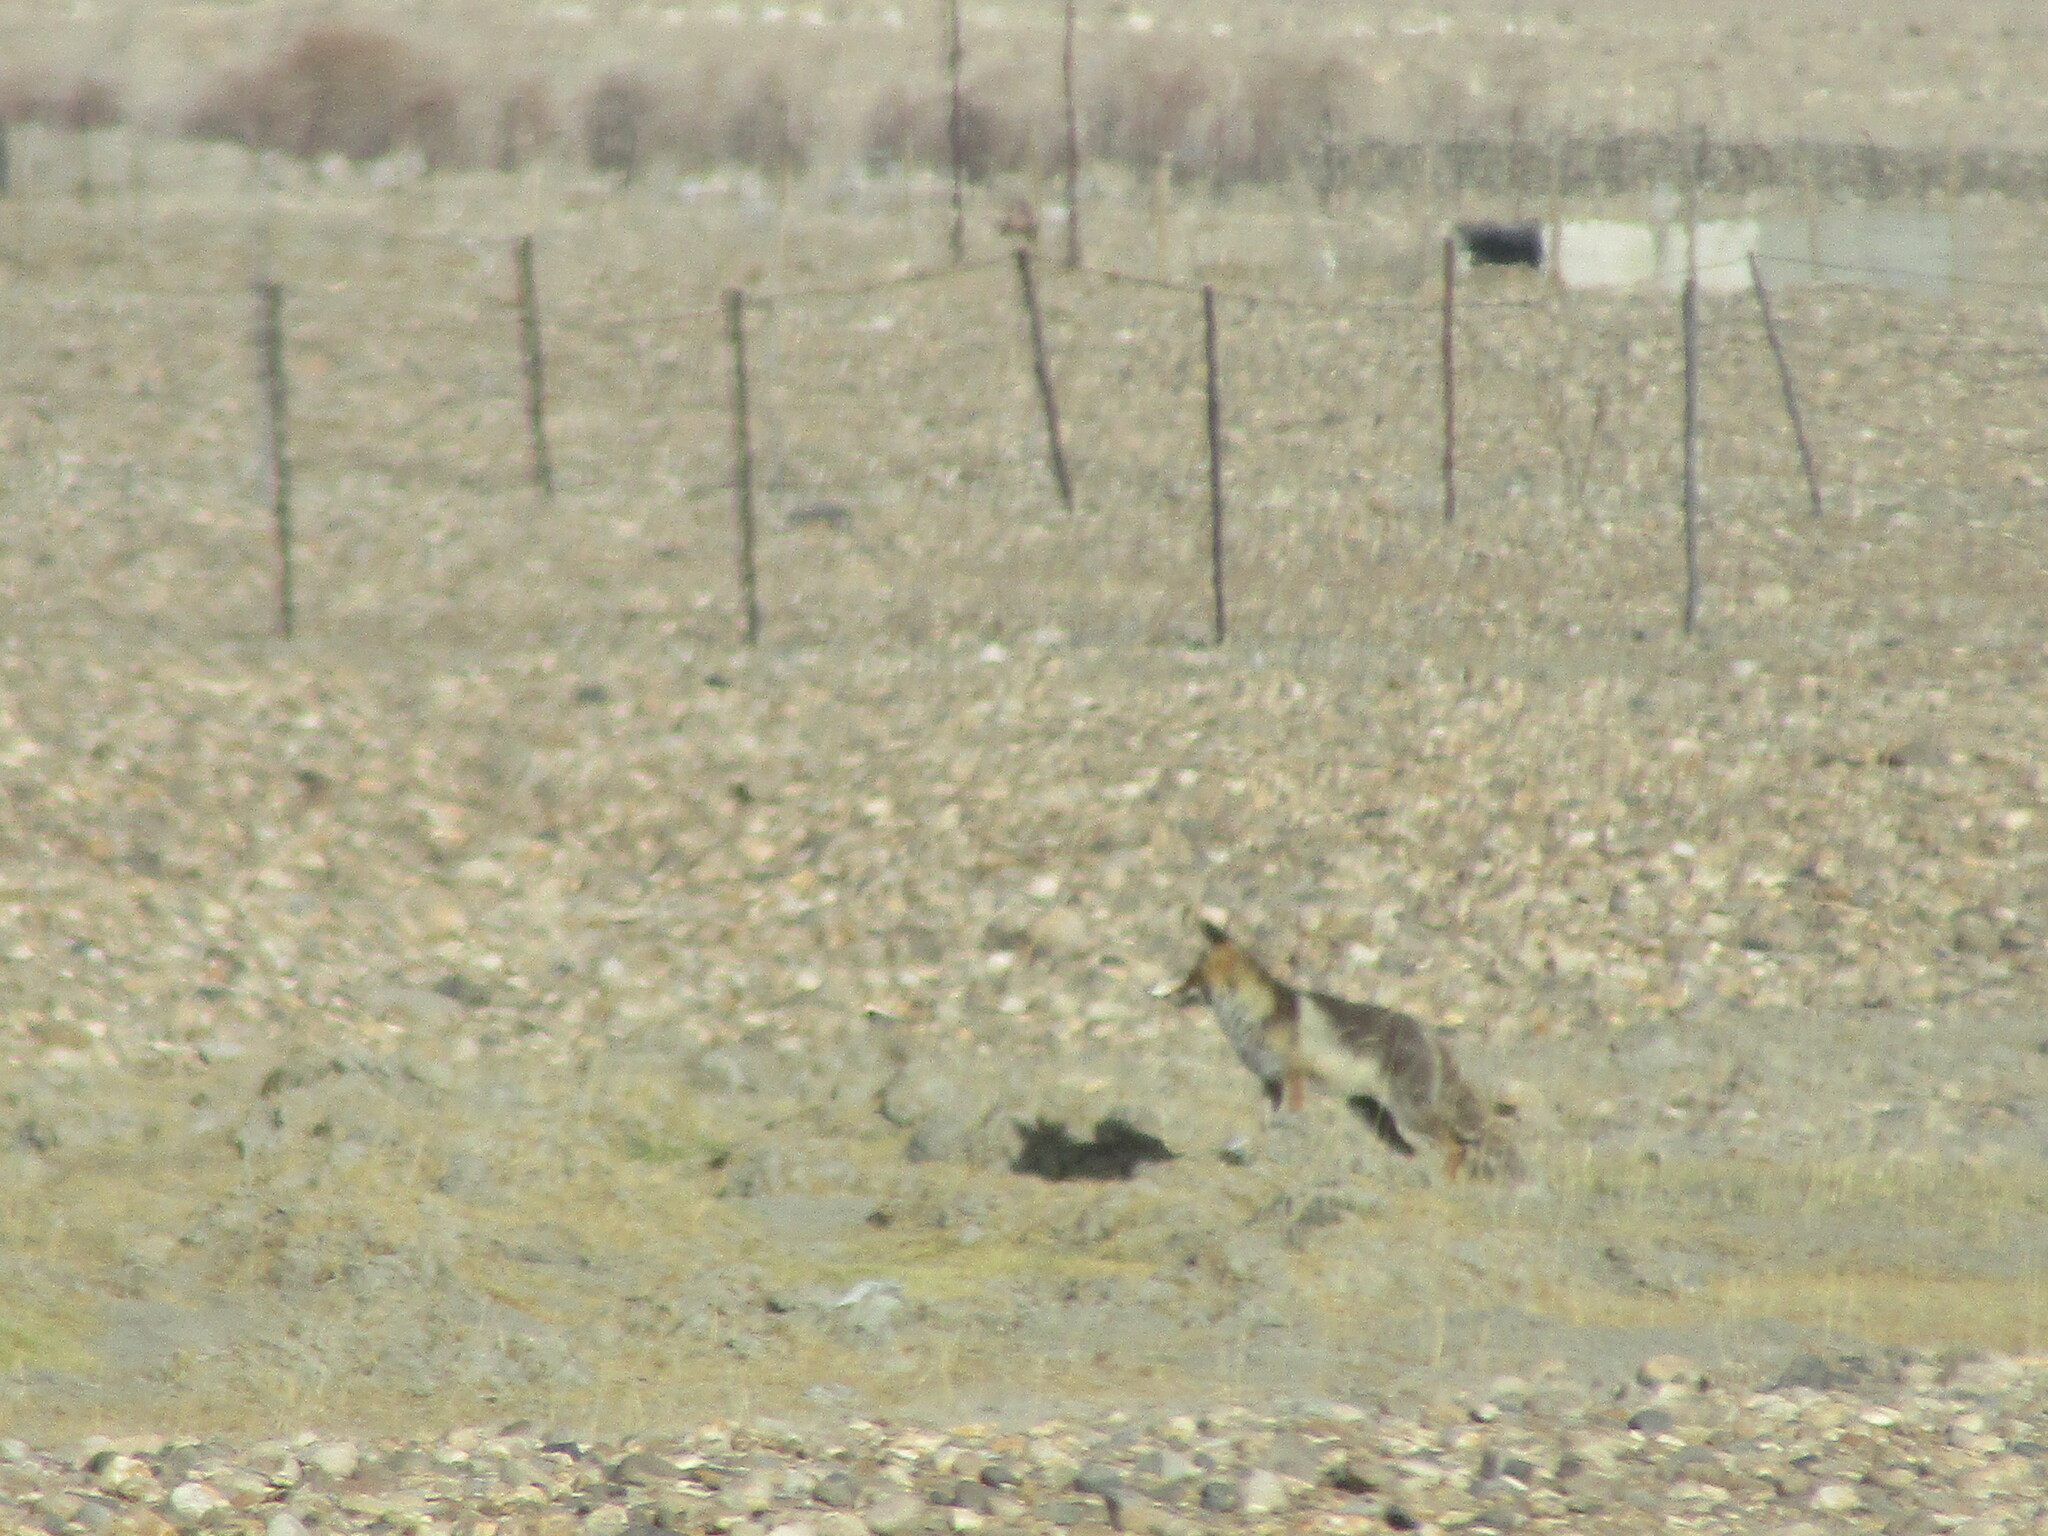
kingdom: Animalia
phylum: Chordata
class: Mammalia
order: Carnivora
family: Canidae
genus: Vulpes
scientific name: Vulpes vulpes
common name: Red fox
